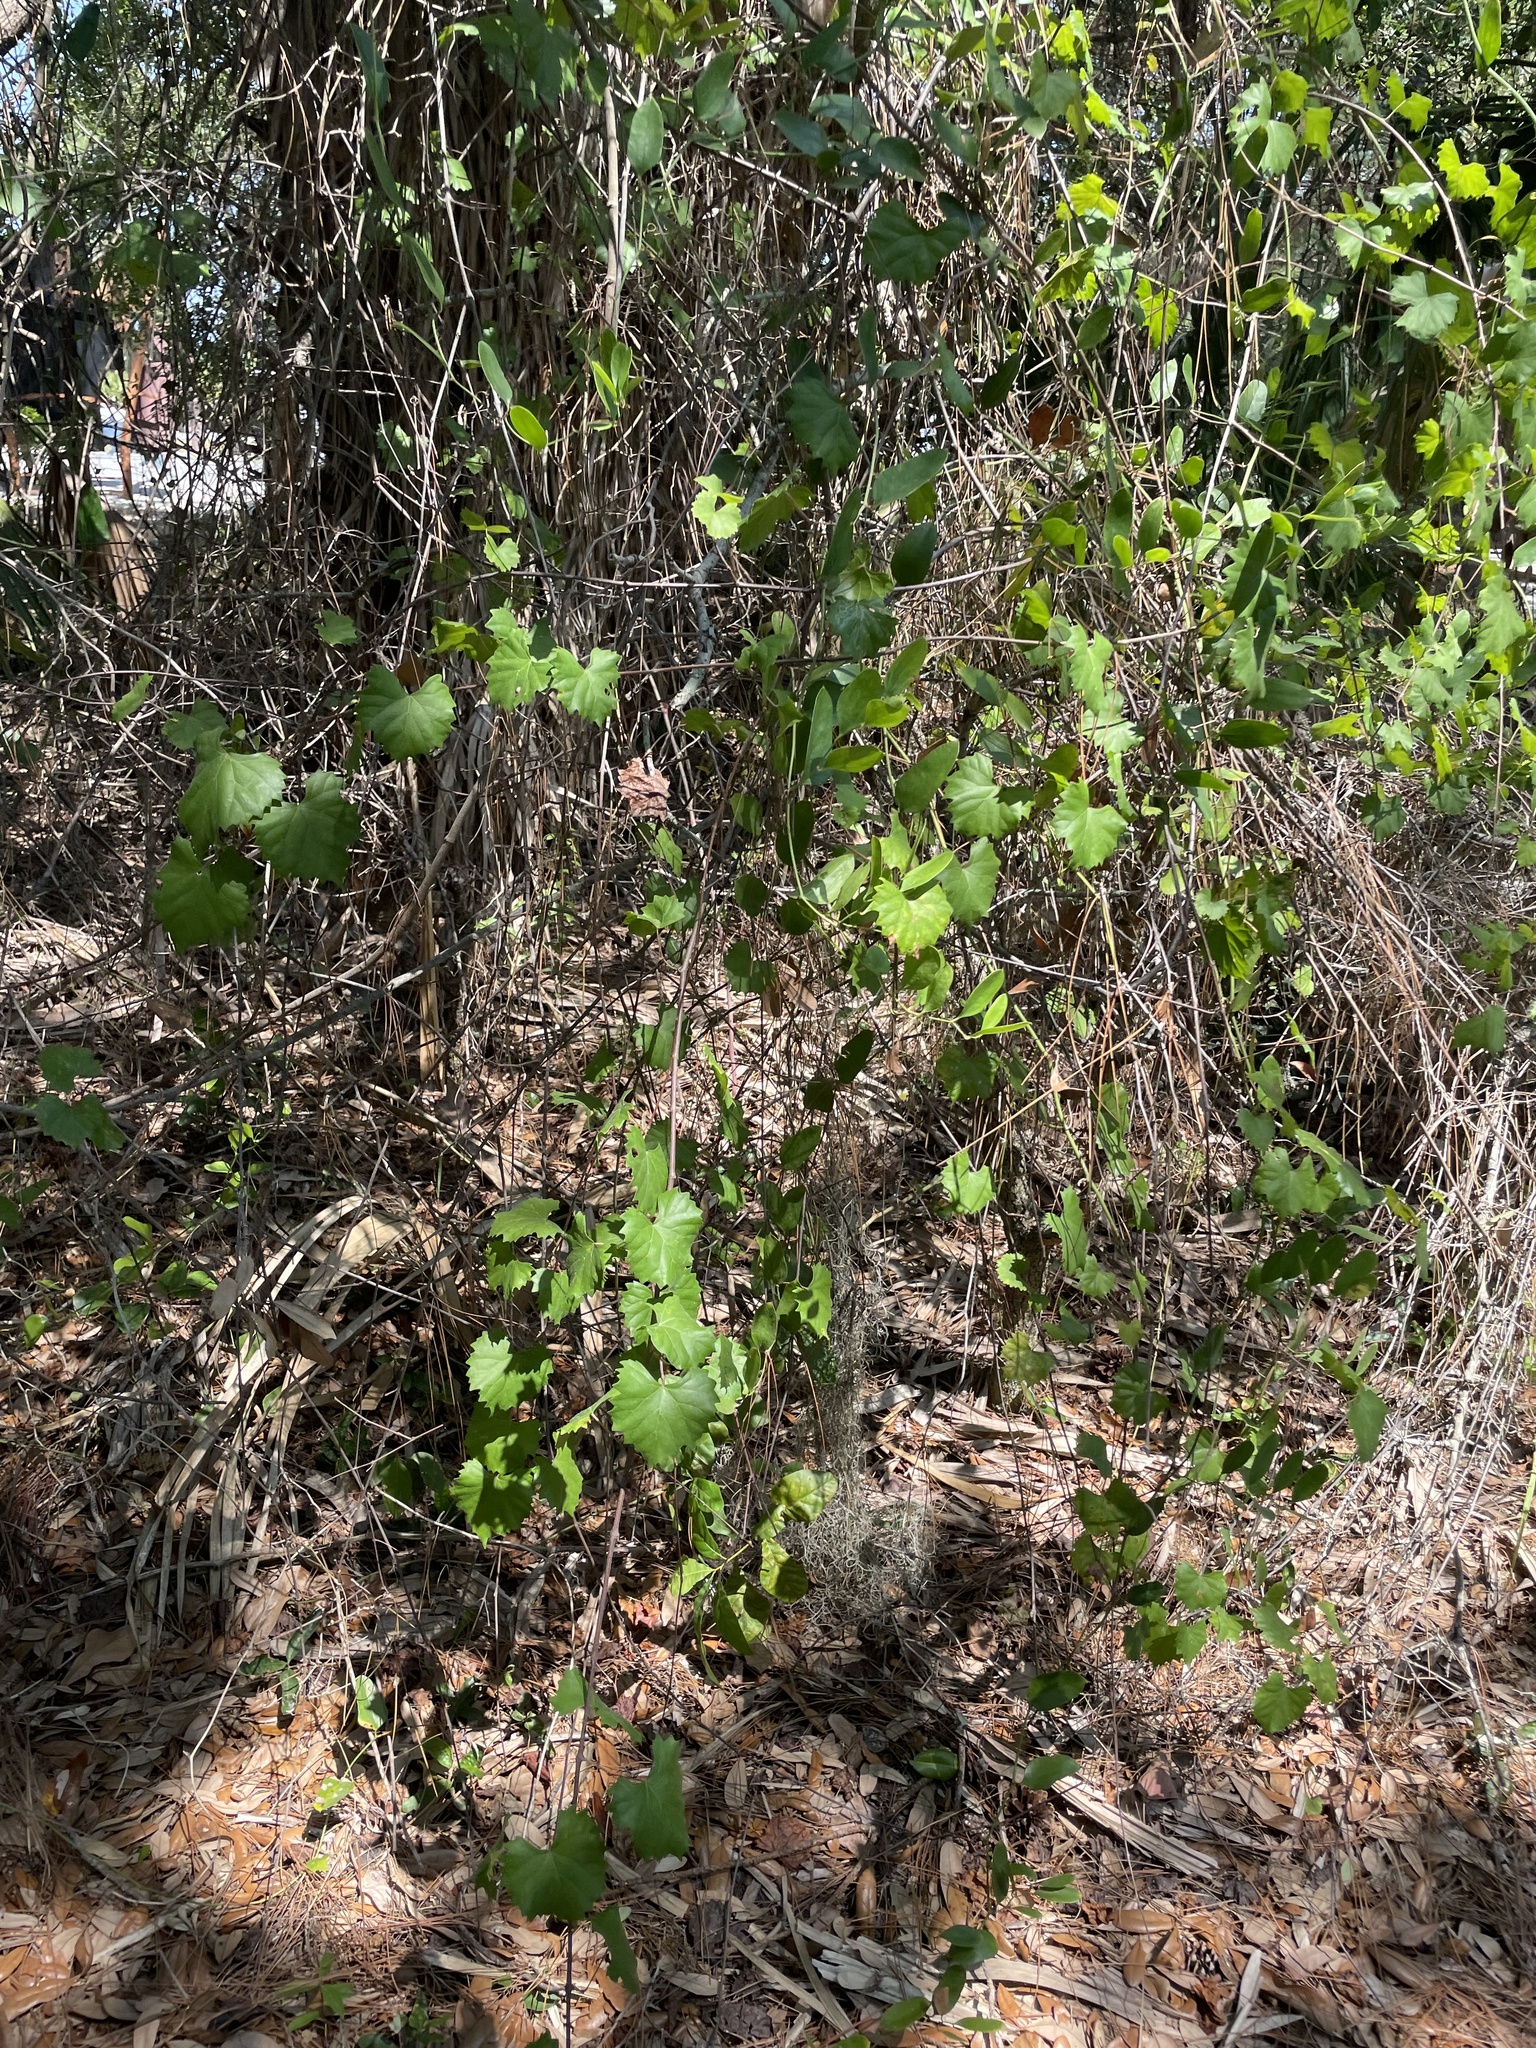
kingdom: Plantae
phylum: Tracheophyta
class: Magnoliopsida
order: Vitales
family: Vitaceae
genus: Vitis
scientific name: Vitis rotundifolia
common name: Muscadine grape
